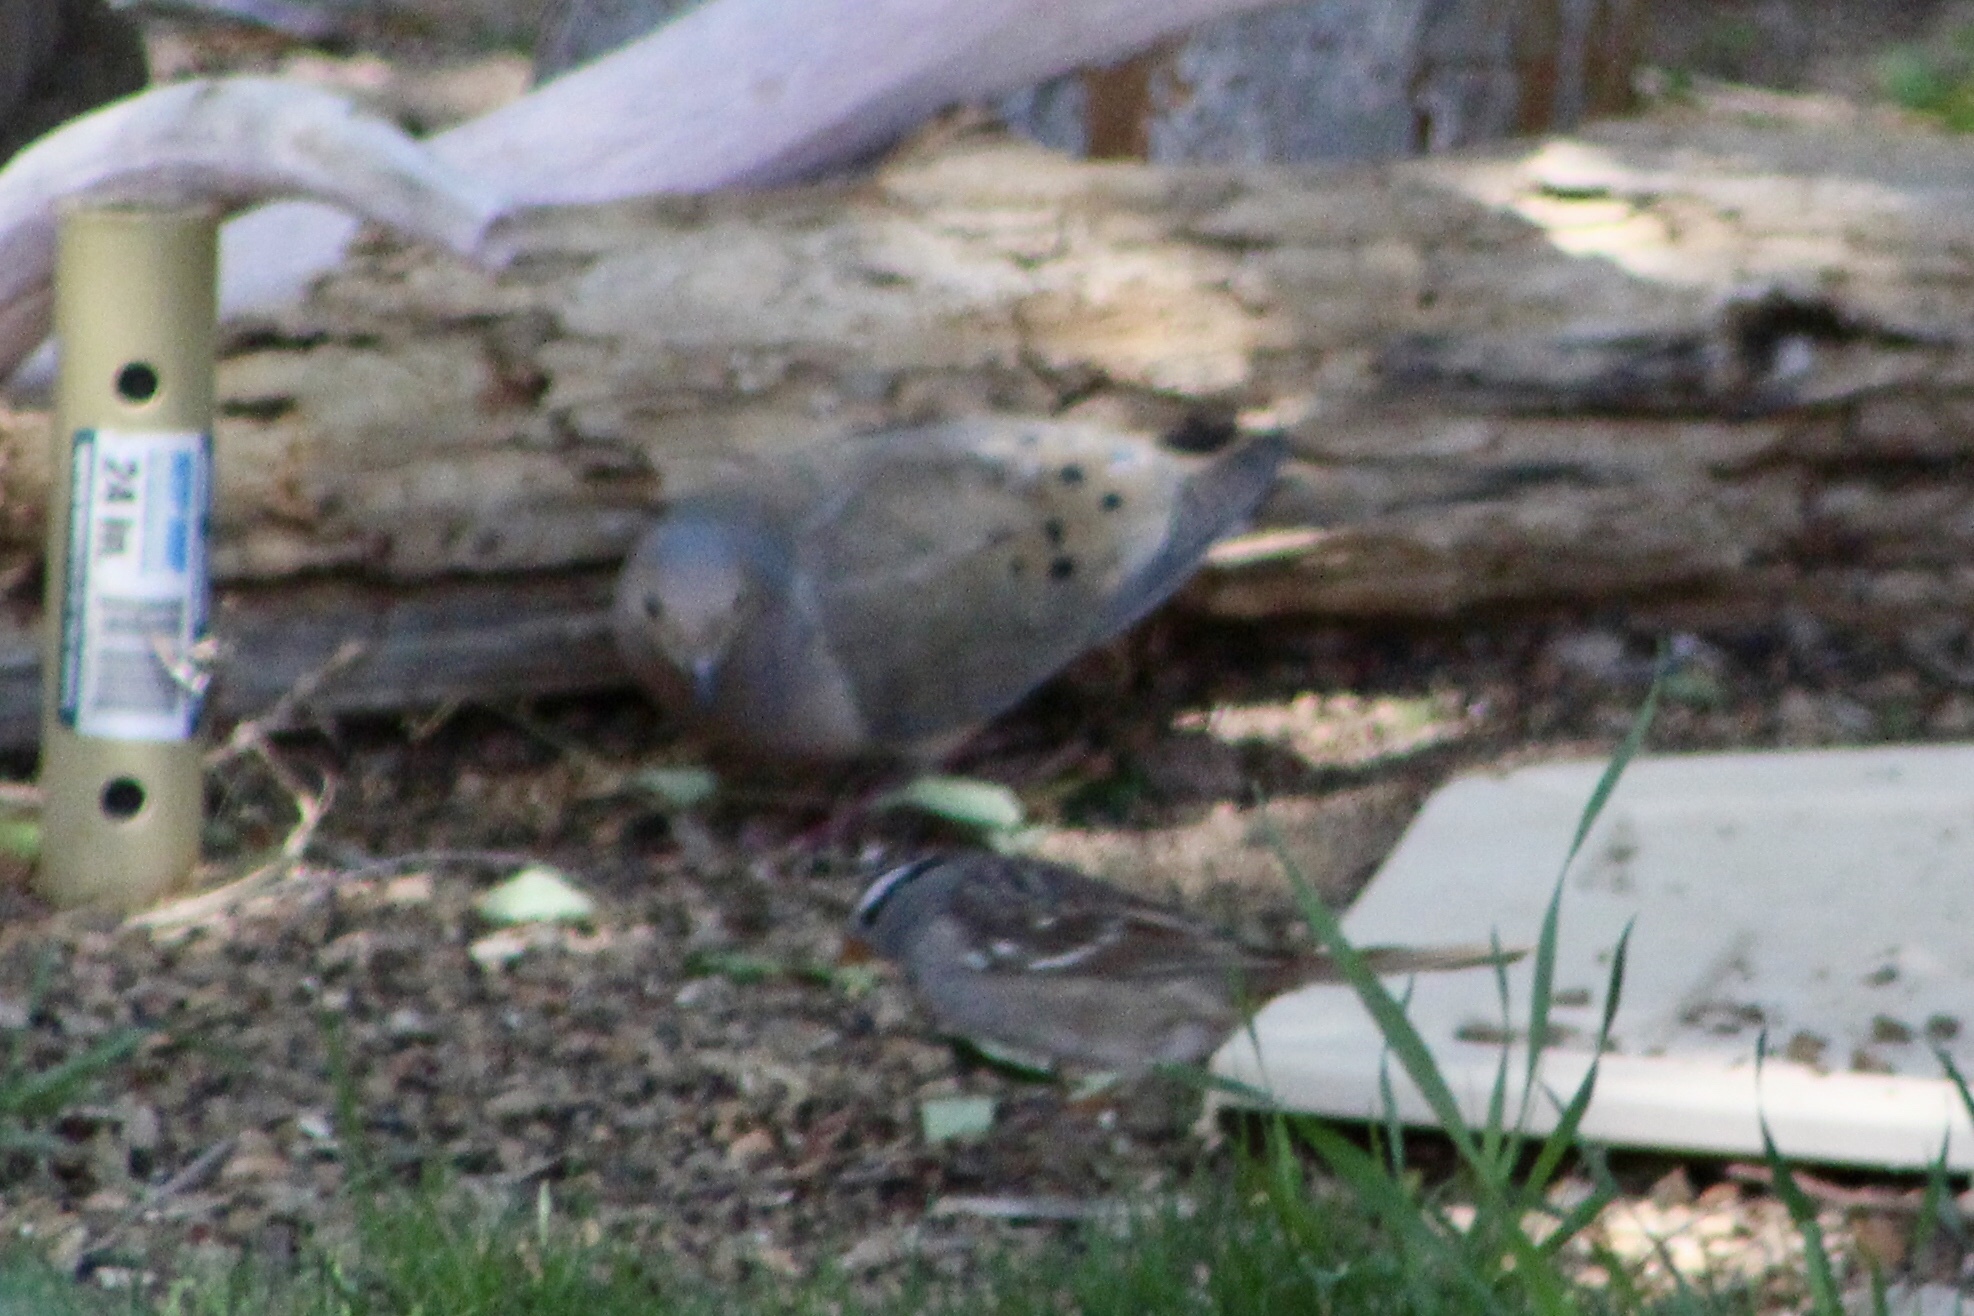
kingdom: Animalia
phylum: Chordata
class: Aves
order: Columbiformes
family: Columbidae
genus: Zenaida
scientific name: Zenaida macroura
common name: Mourning dove
